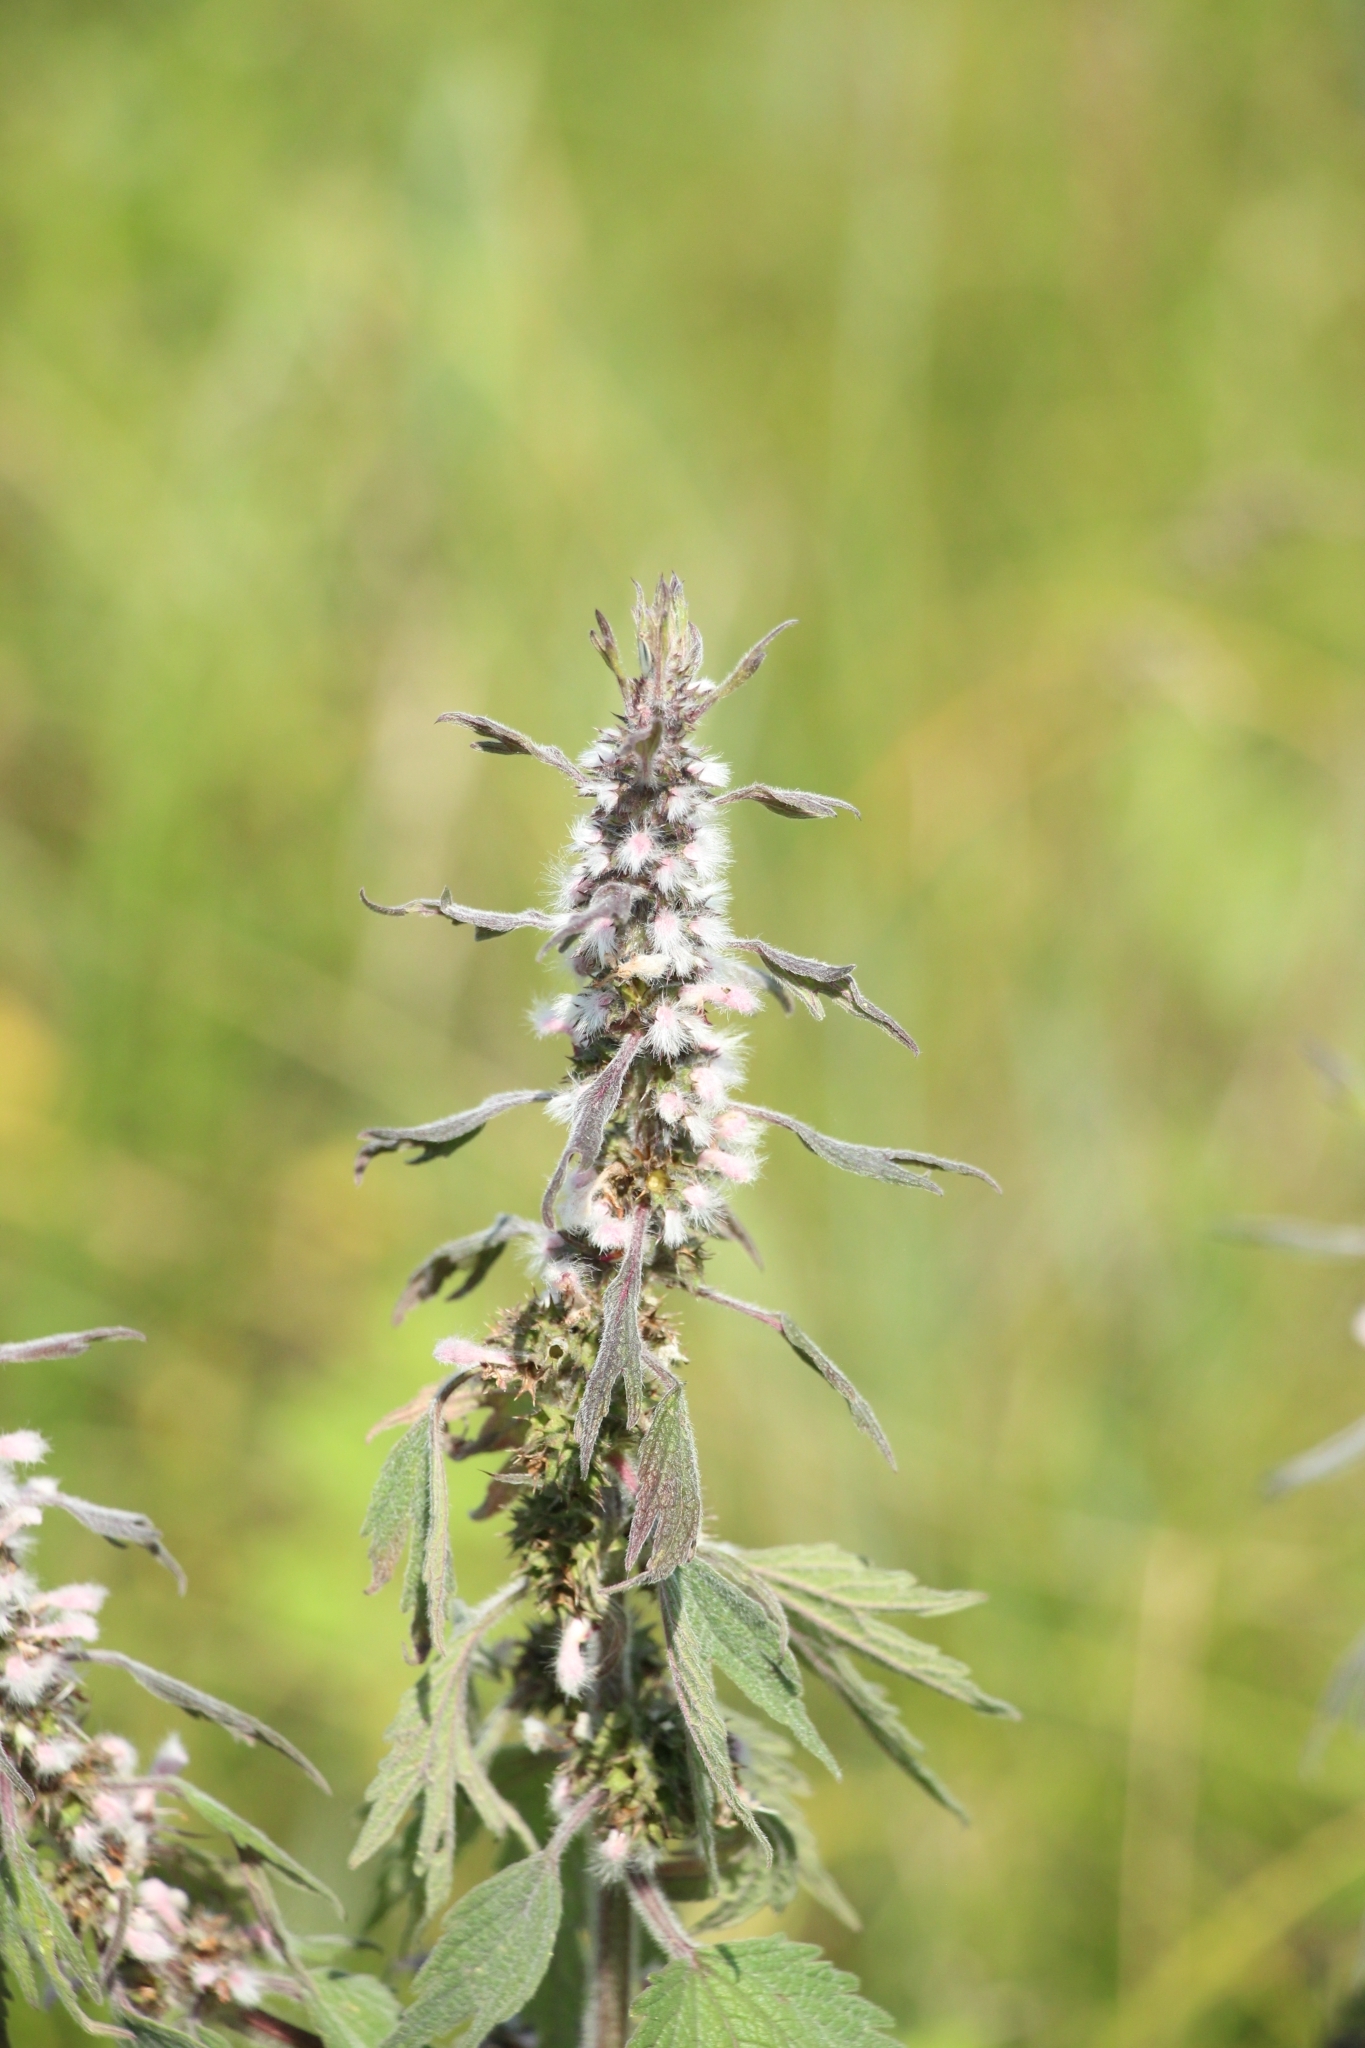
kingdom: Plantae
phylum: Tracheophyta
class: Magnoliopsida
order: Lamiales
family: Lamiaceae
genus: Leonurus
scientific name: Leonurus quinquelobatus
